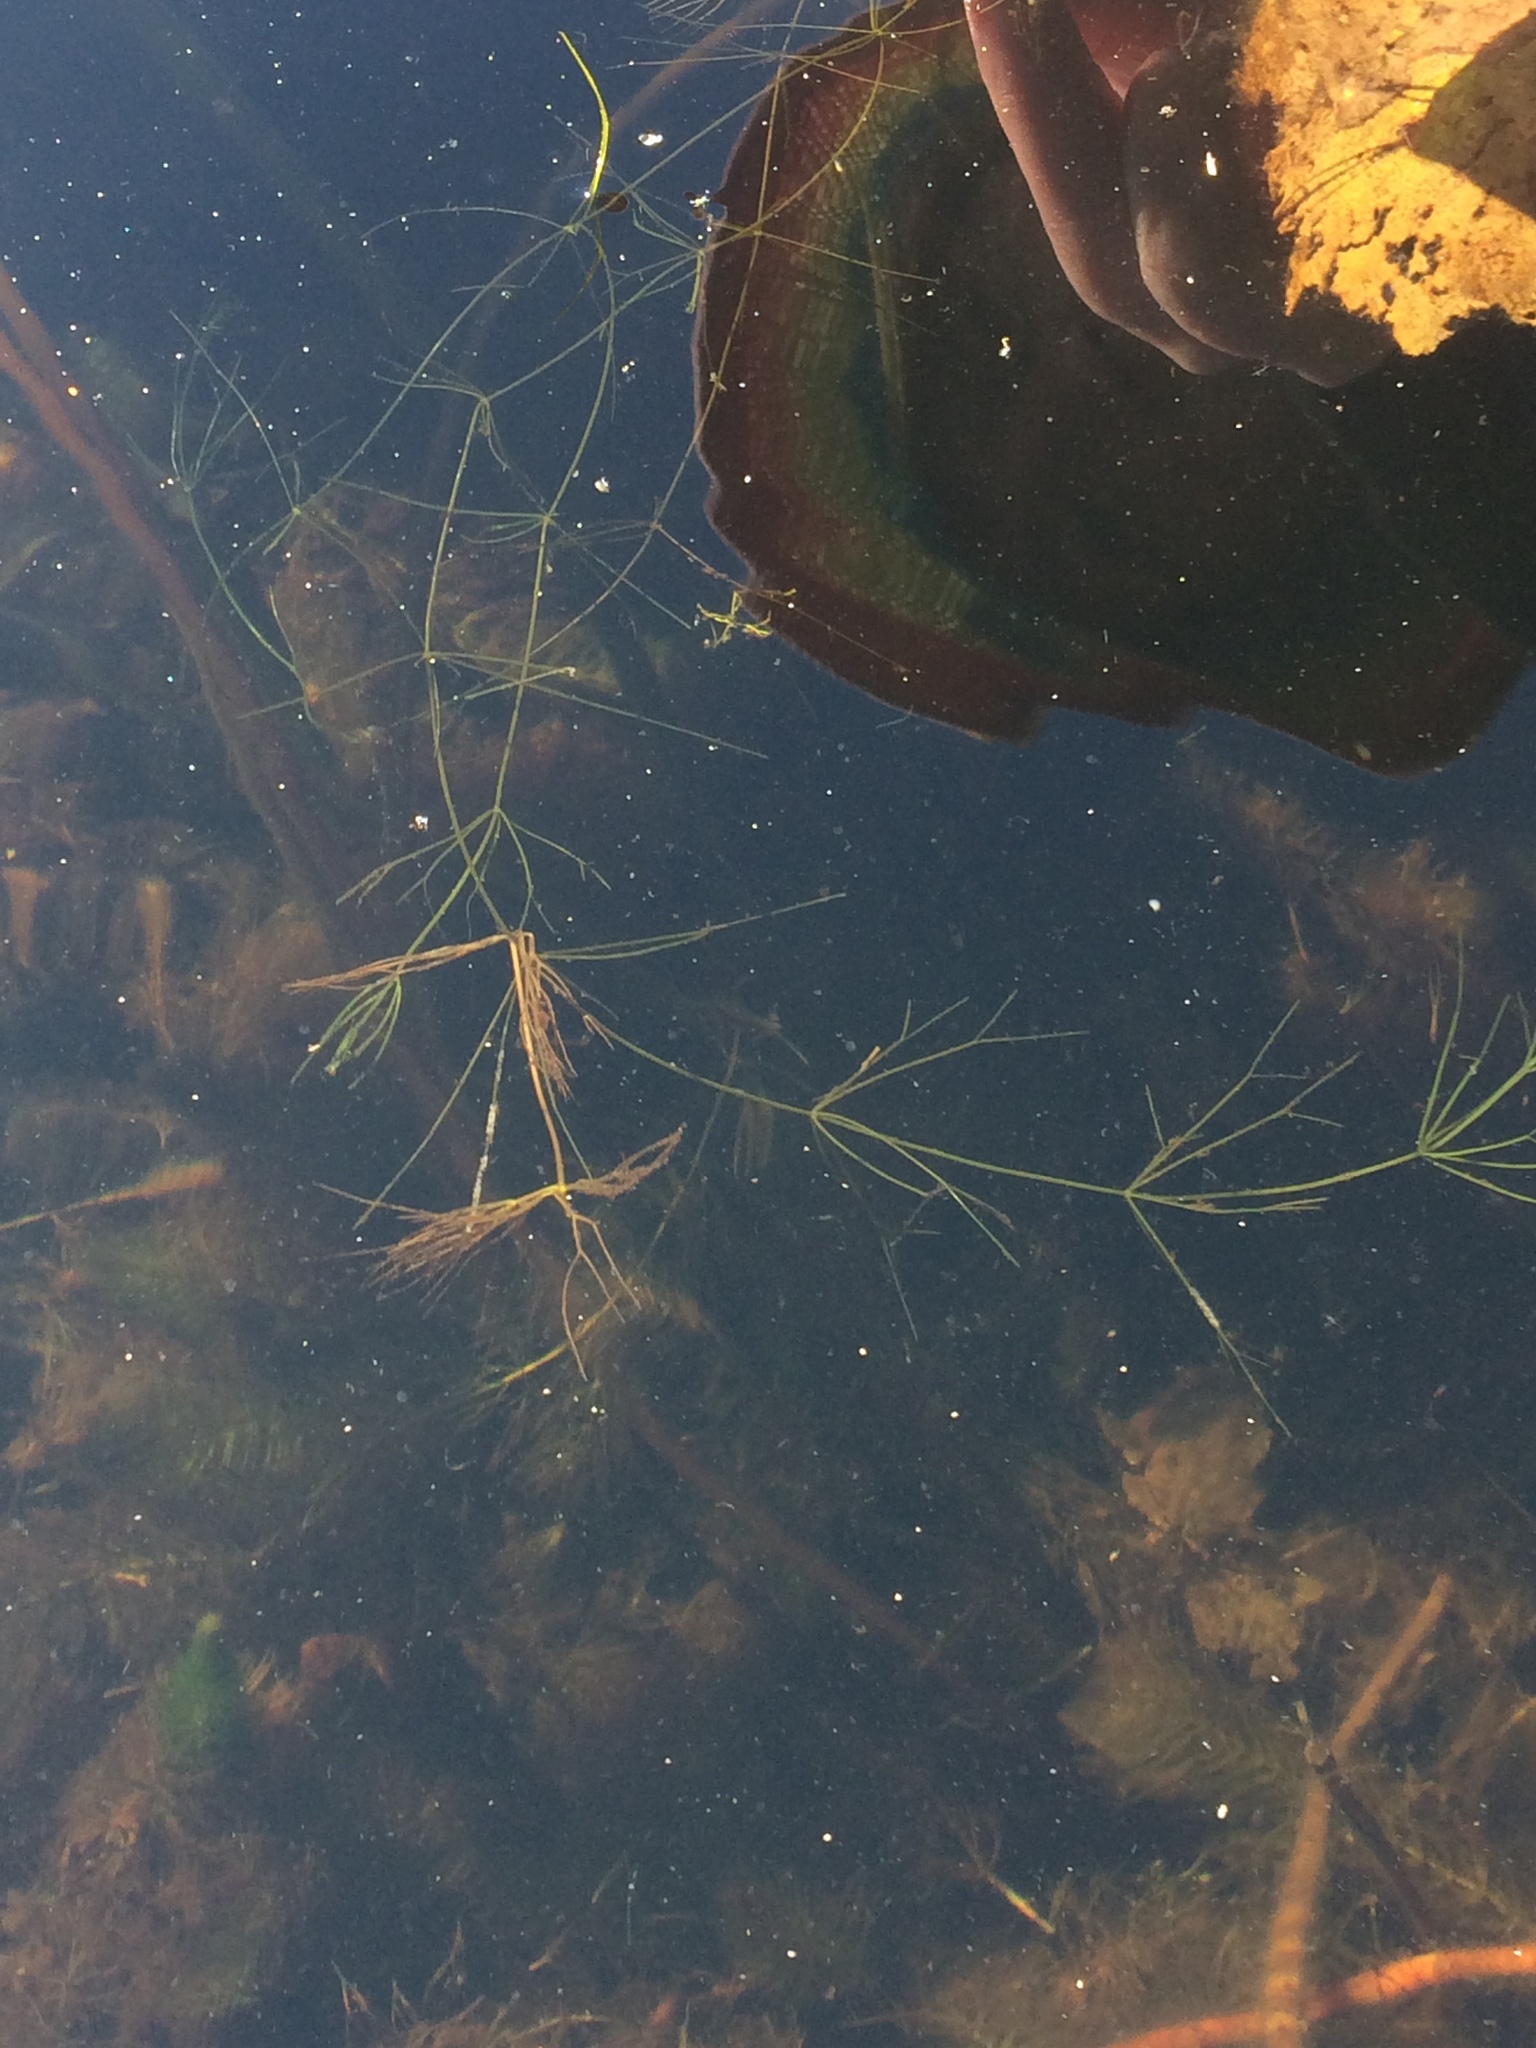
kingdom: Plantae
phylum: Charophyta
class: Charophyceae
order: Charales
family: Characeae
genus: Nitella
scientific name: Nitella
